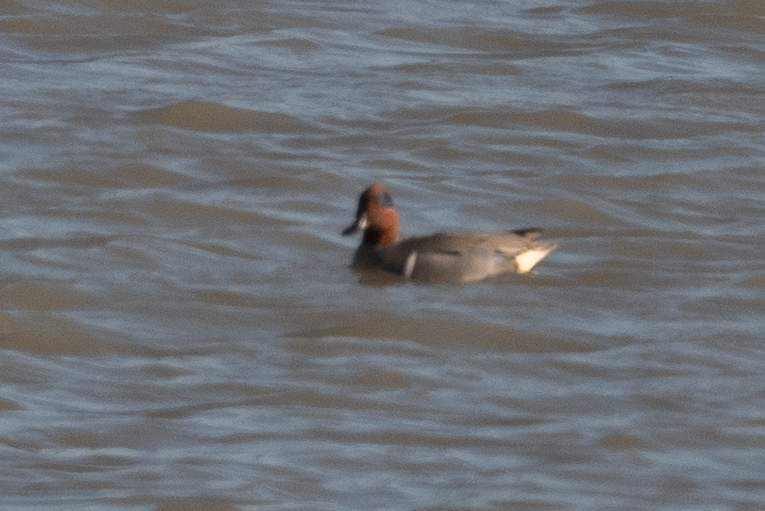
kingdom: Animalia
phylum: Chordata
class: Aves
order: Anseriformes
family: Anatidae
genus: Anas
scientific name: Anas crecca
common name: Eurasian teal
